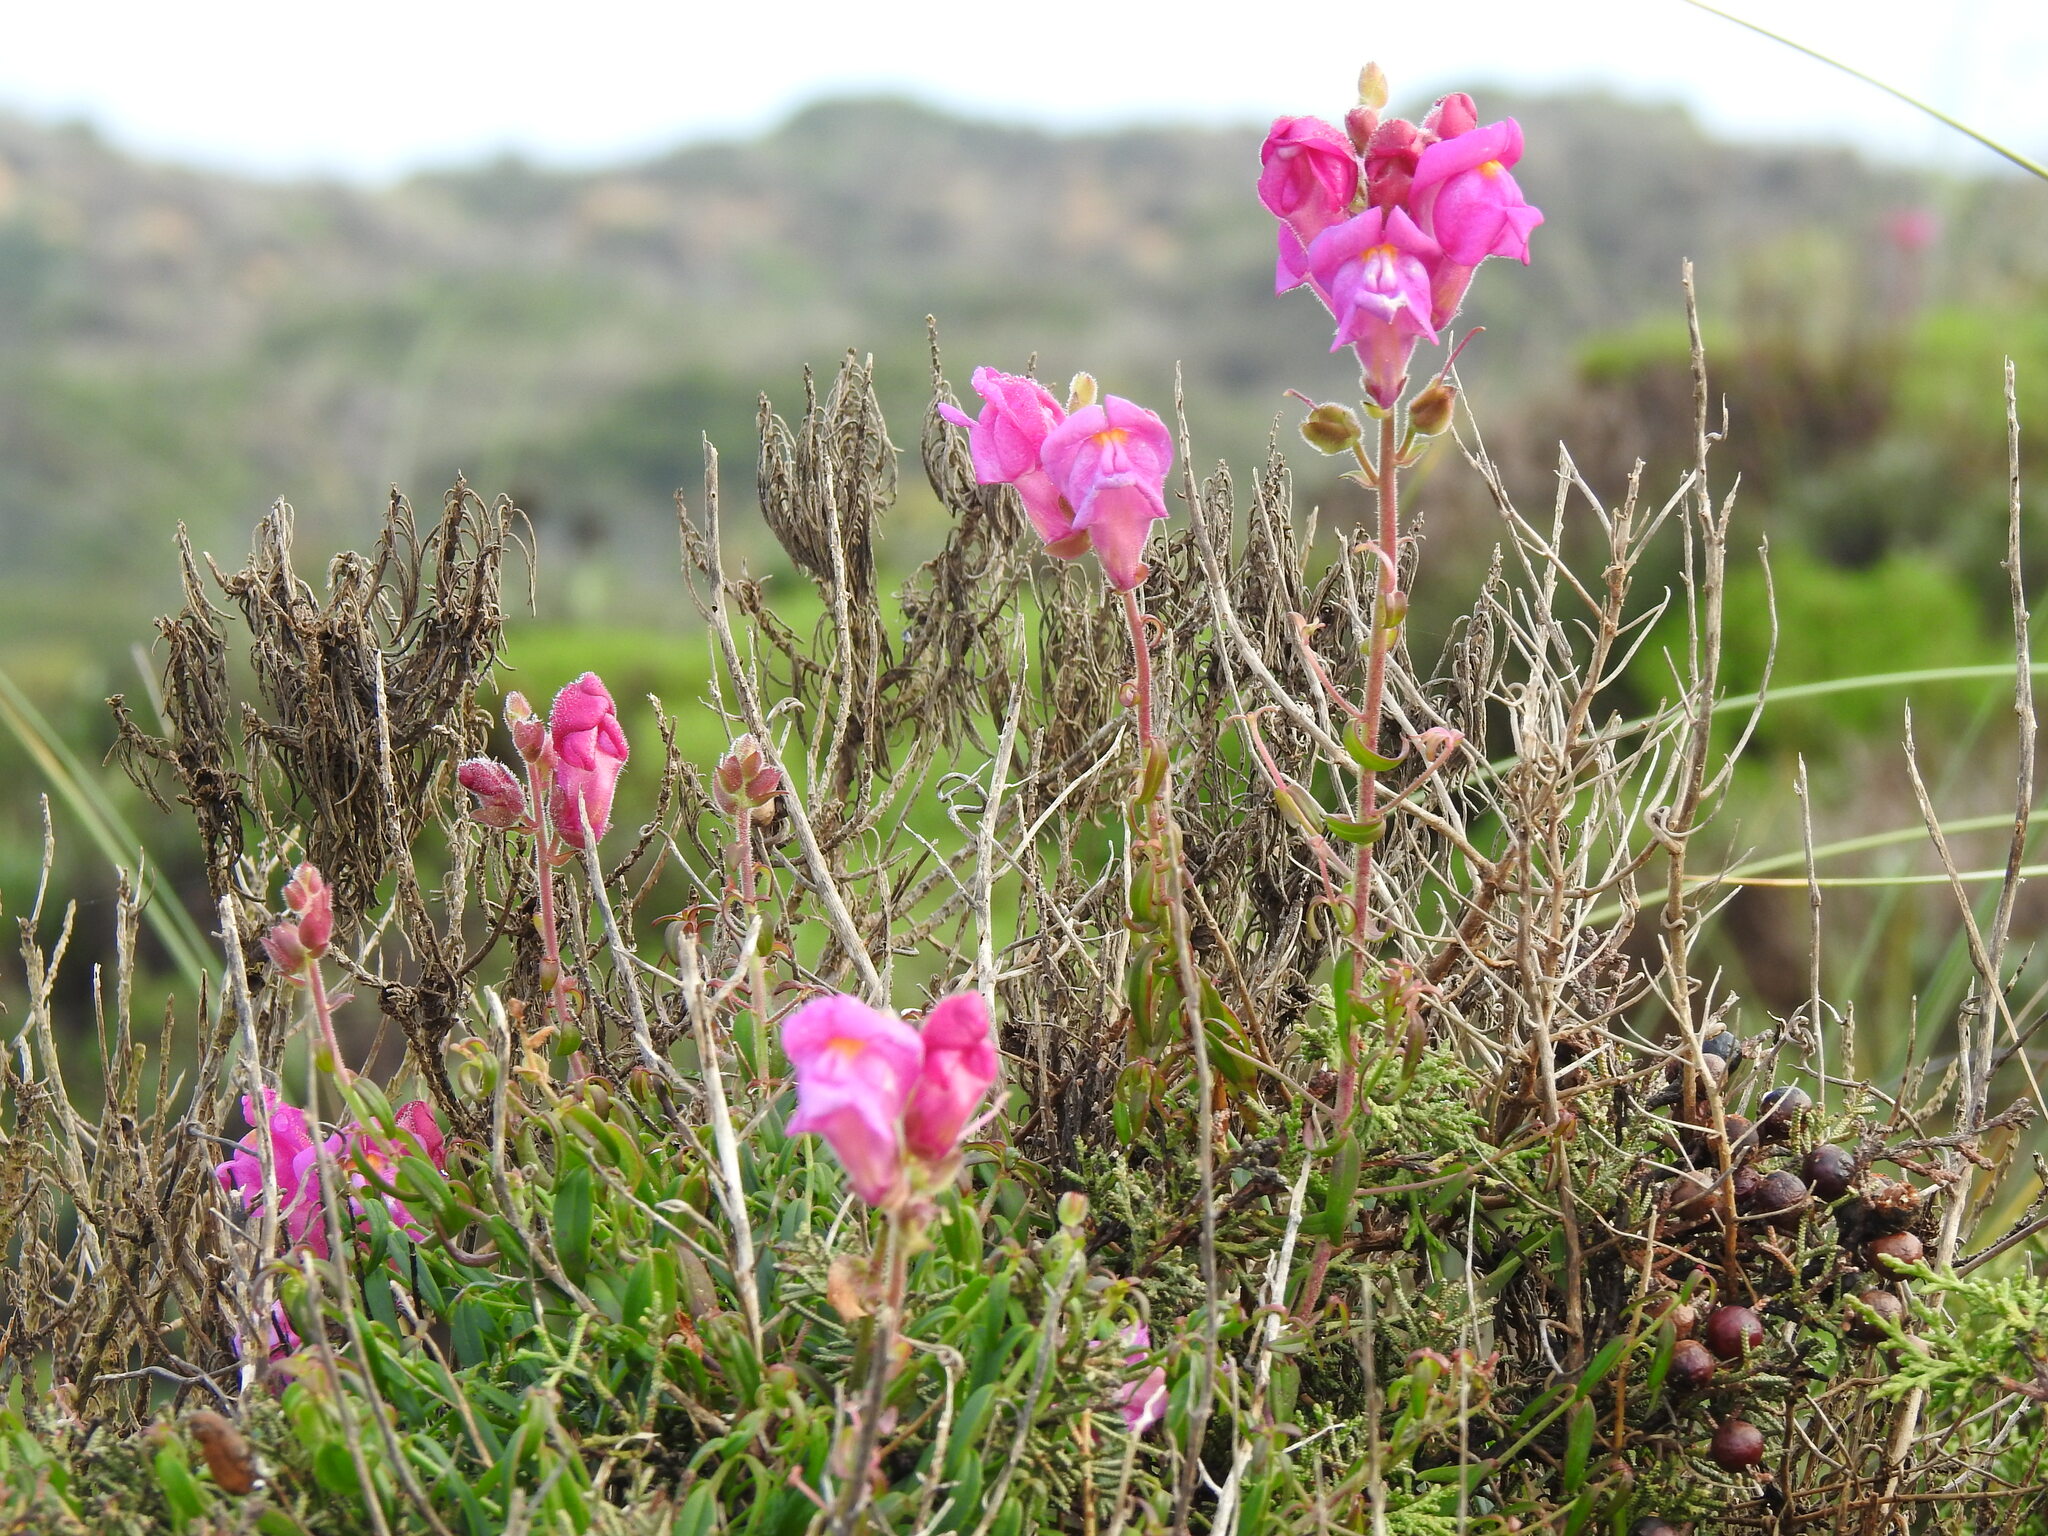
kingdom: Plantae
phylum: Tracheophyta
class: Magnoliopsida
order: Lamiales
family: Plantaginaceae
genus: Antirrhinum
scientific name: Antirrhinum cirrhigerum
